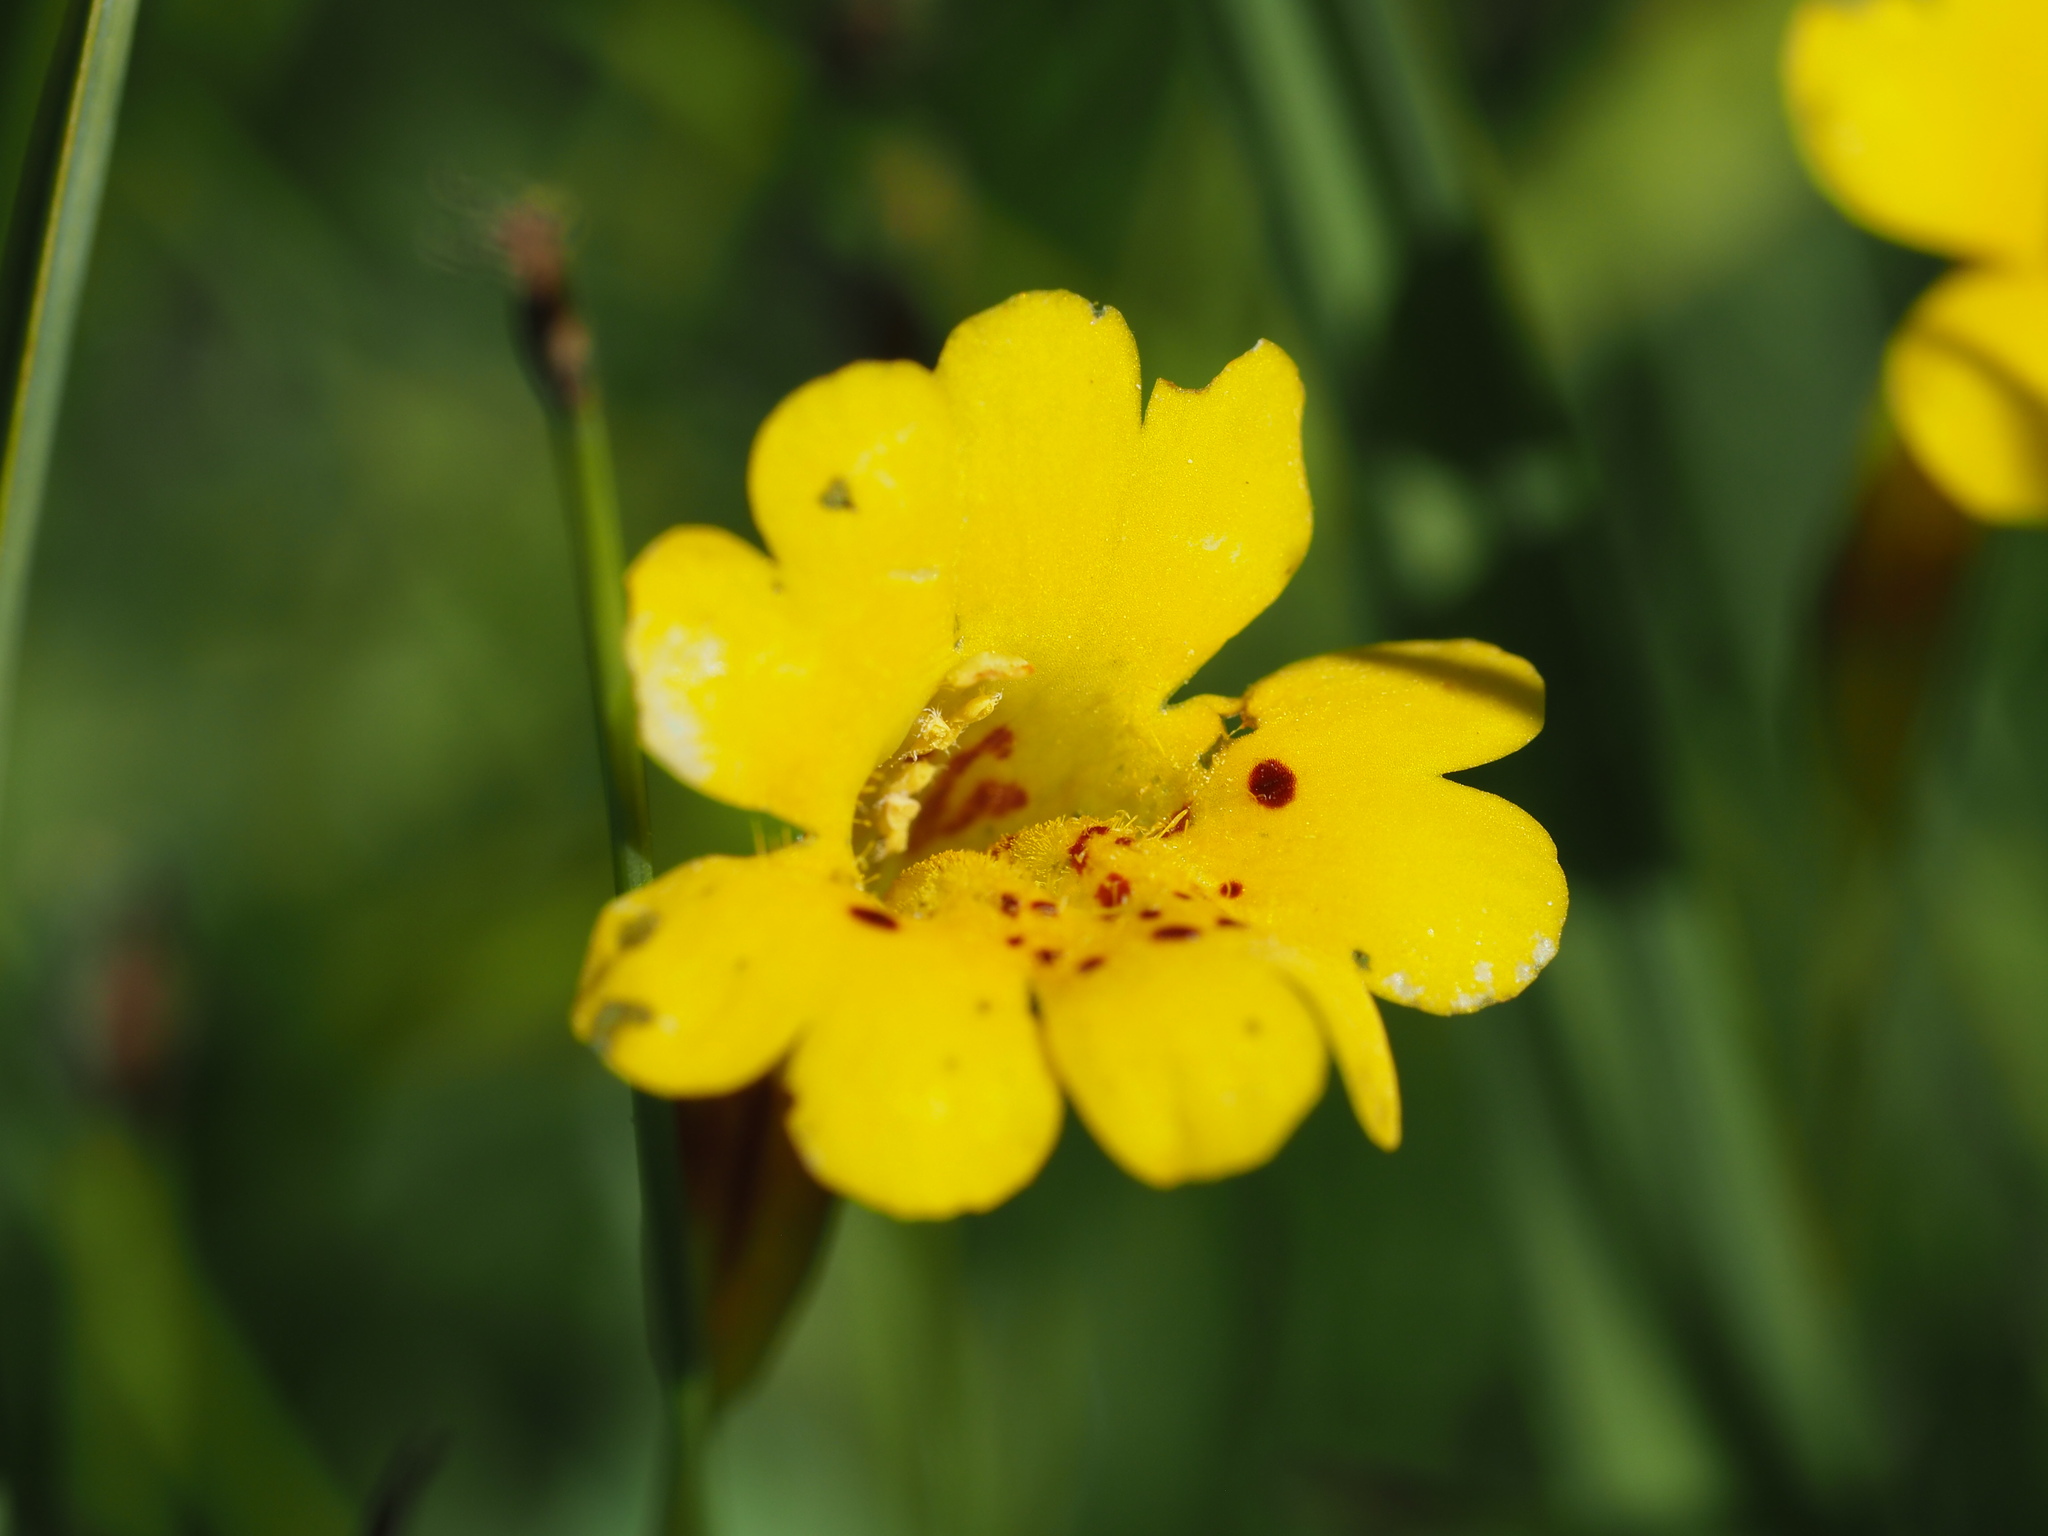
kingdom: Plantae
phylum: Tracheophyta
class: Magnoliopsida
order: Lamiales
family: Phrymaceae
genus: Erythranthe
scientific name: Erythranthe primuloides
